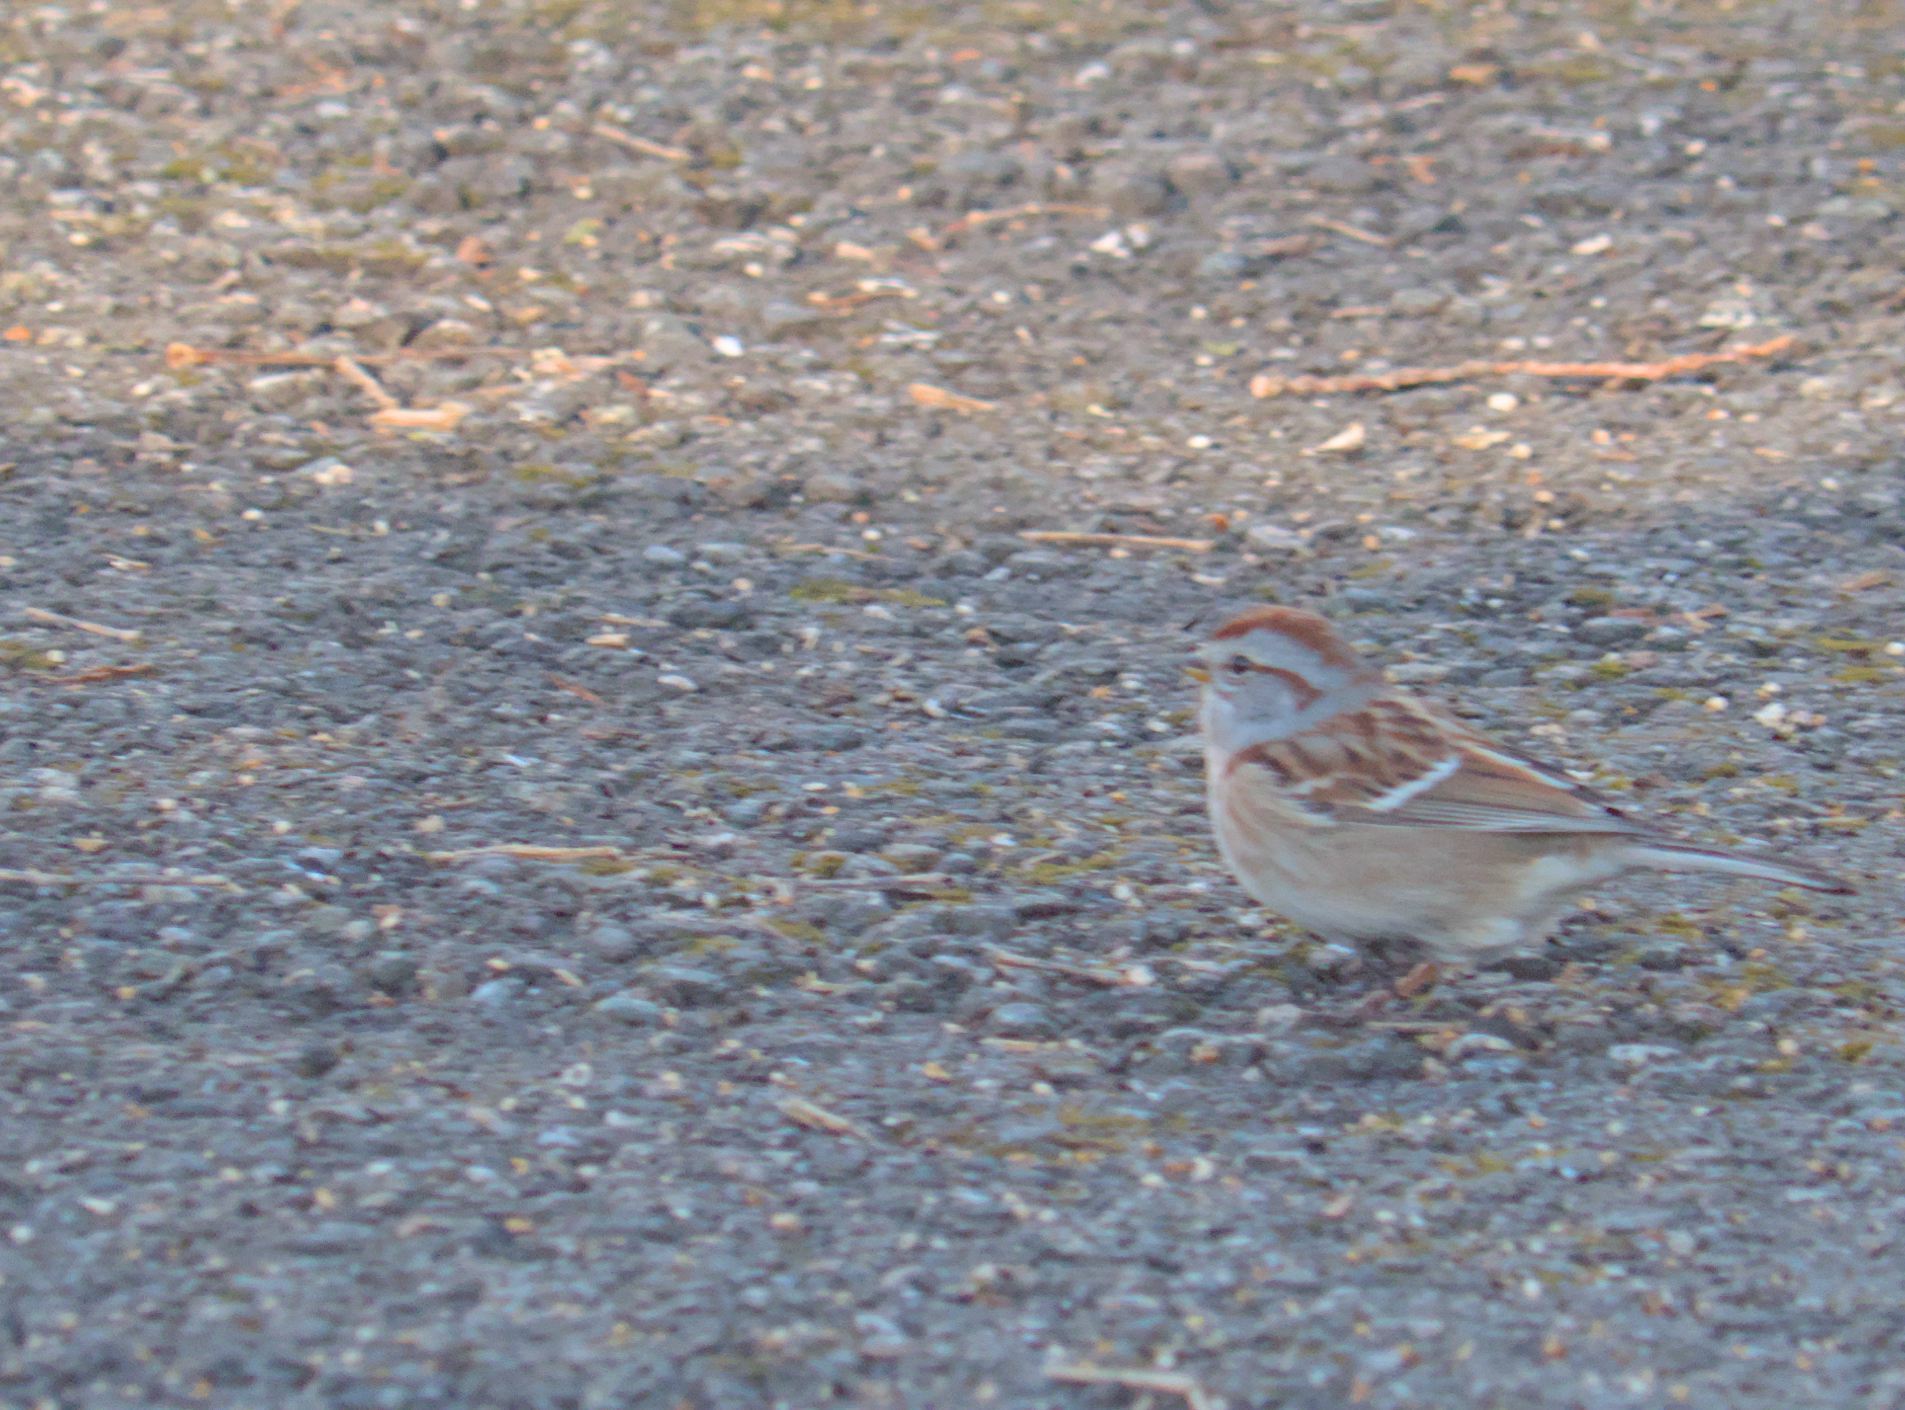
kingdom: Animalia
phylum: Chordata
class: Aves
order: Passeriformes
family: Passerellidae
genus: Spizelloides
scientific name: Spizelloides arborea
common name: American tree sparrow
